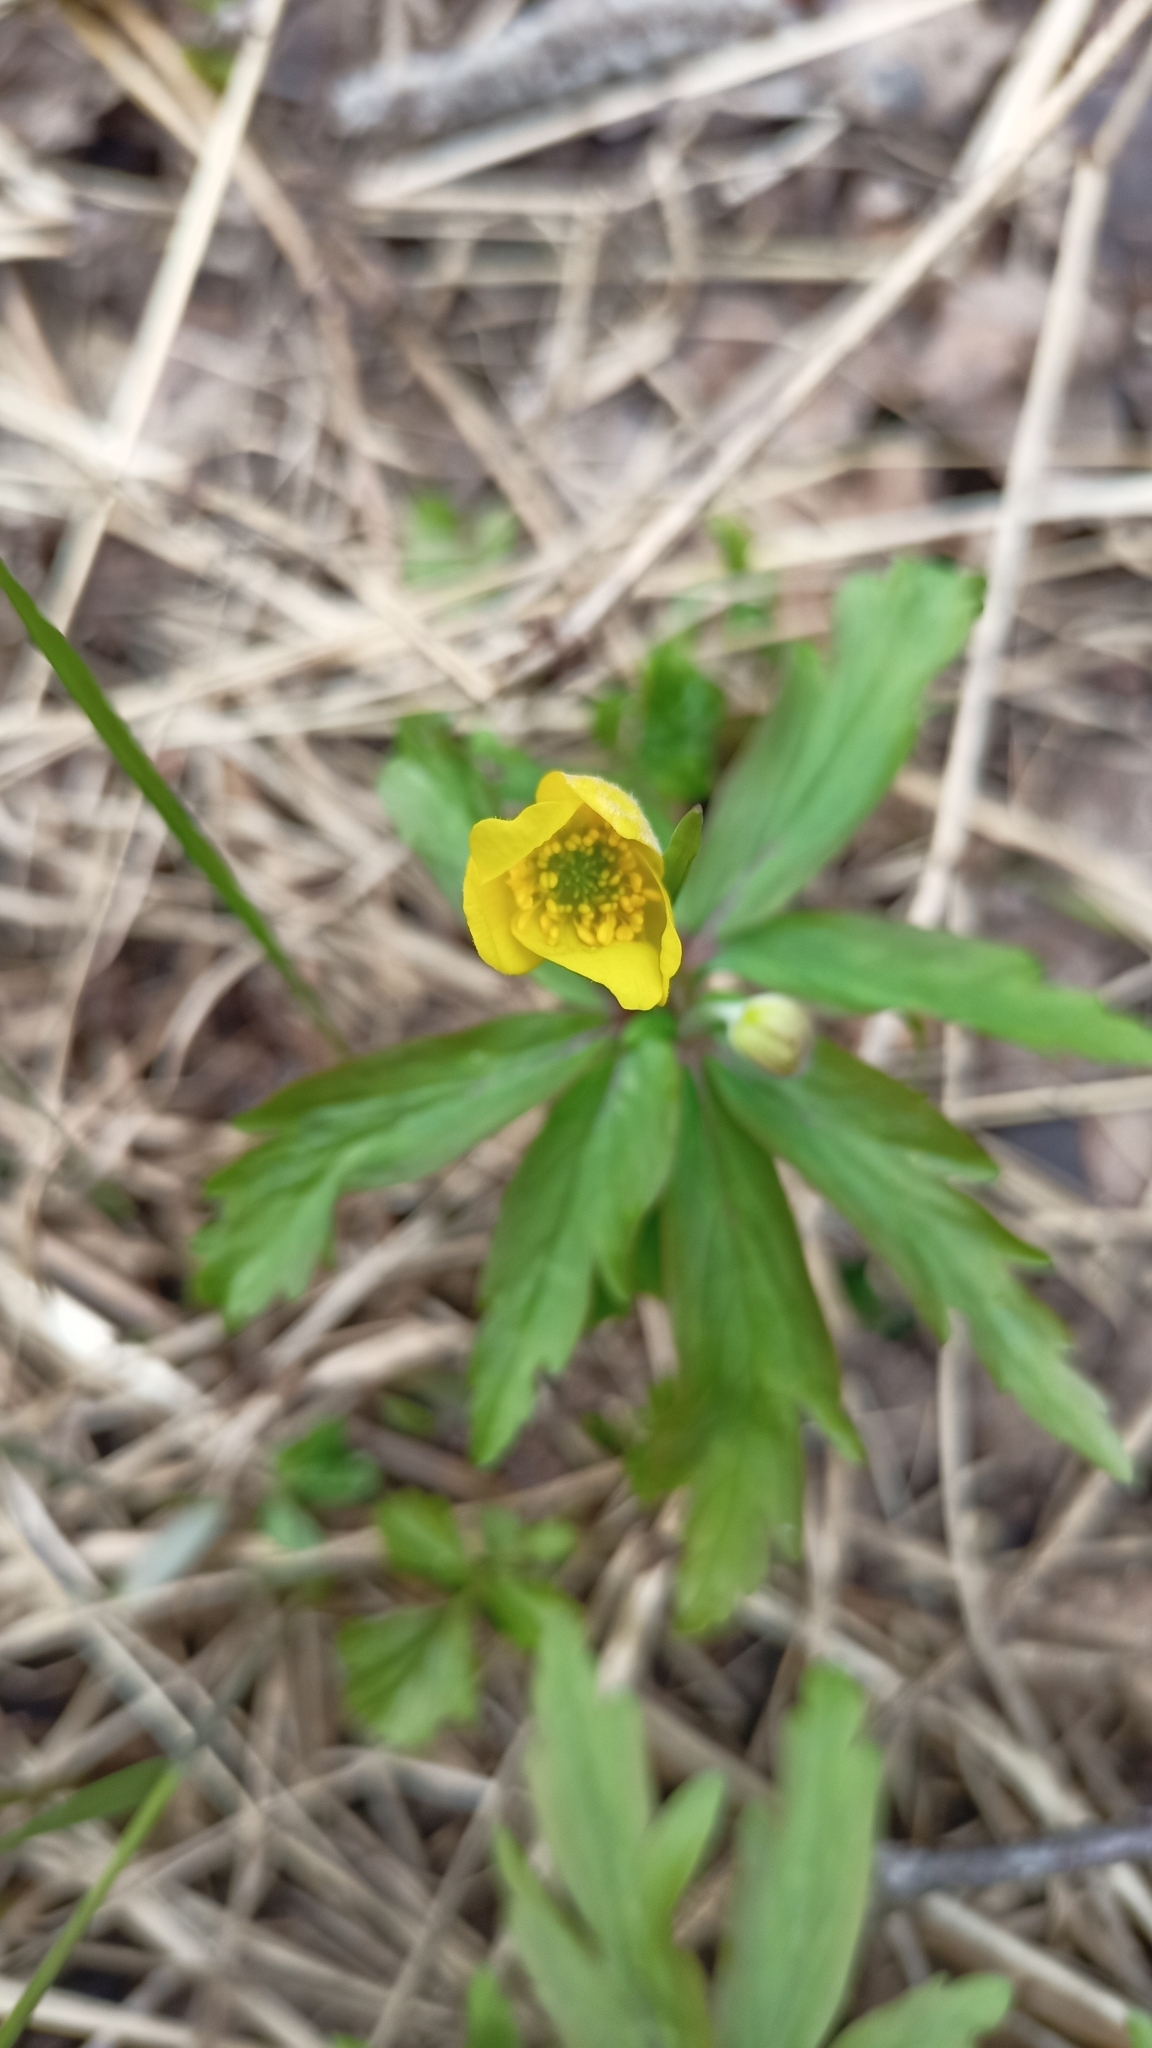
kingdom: Plantae
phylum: Tracheophyta
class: Magnoliopsida
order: Ranunculales
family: Ranunculaceae
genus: Anemone
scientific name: Anemone ranunculoides
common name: Yellow anemone
